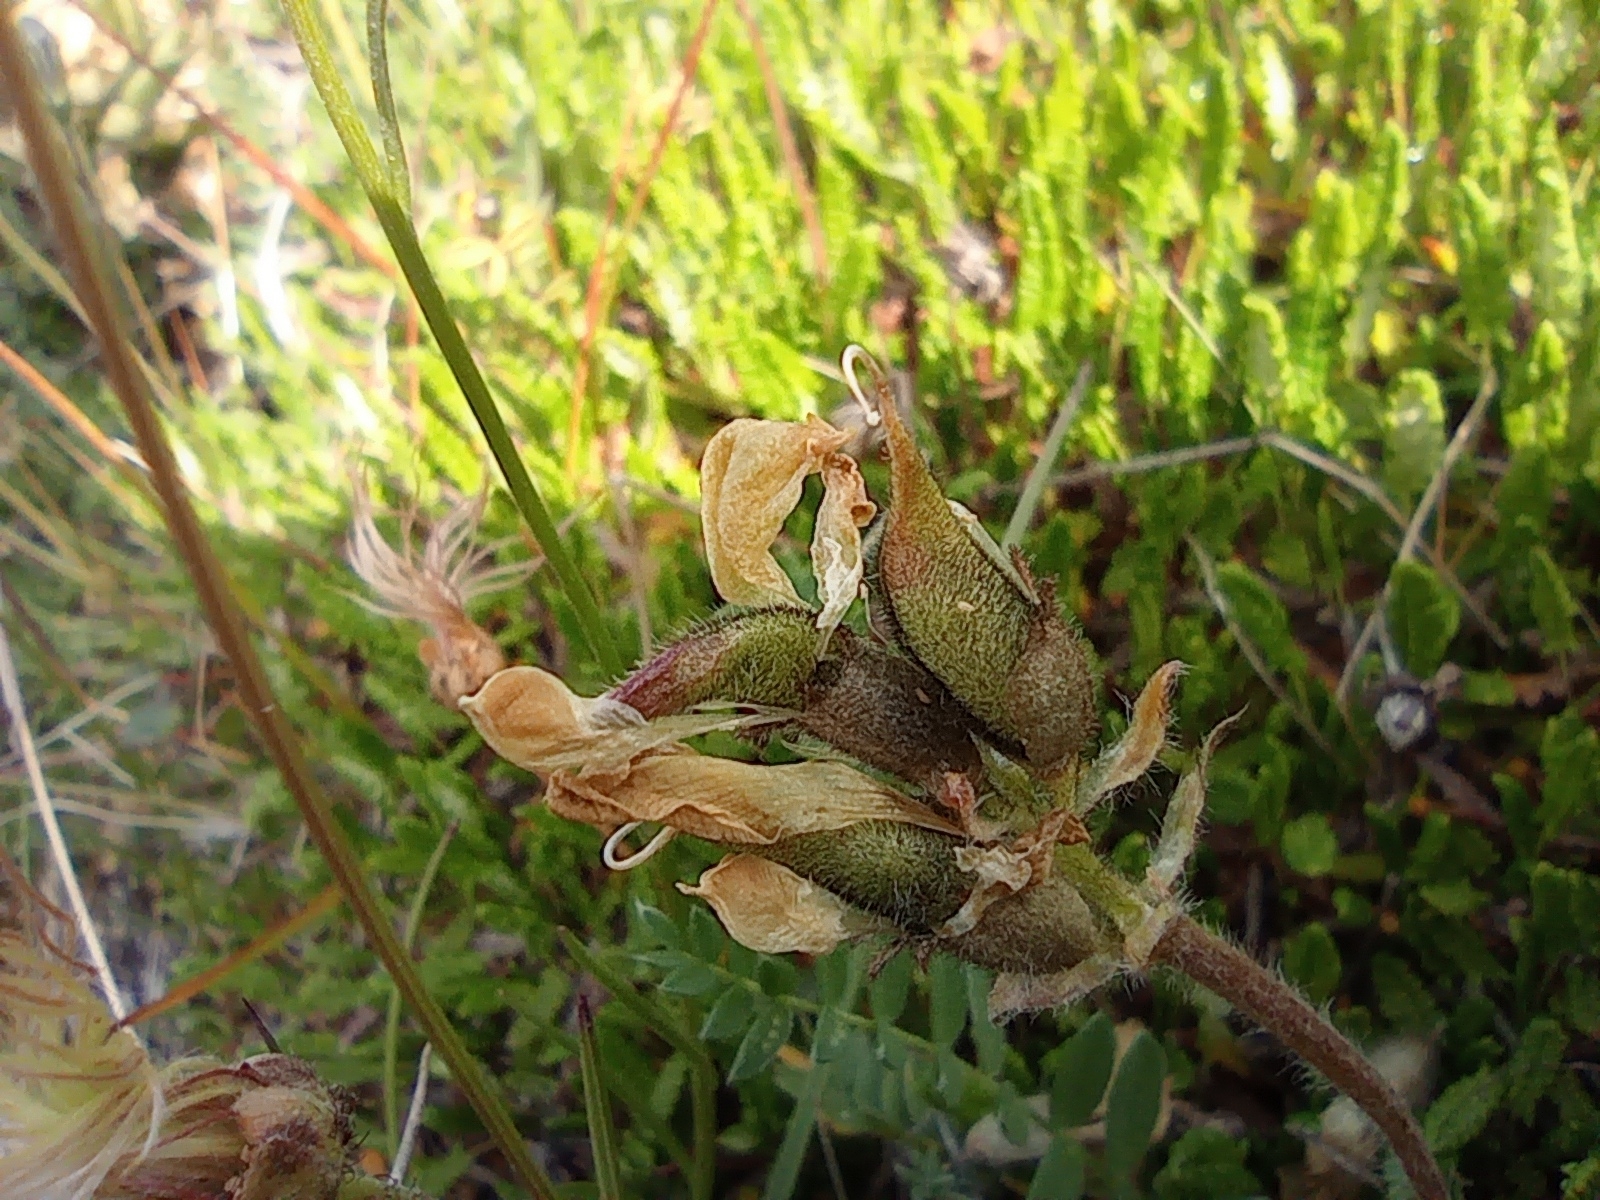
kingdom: Plantae
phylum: Tracheophyta
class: Magnoliopsida
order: Fabales
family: Fabaceae
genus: Oxytropis
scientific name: Oxytropis sordida
